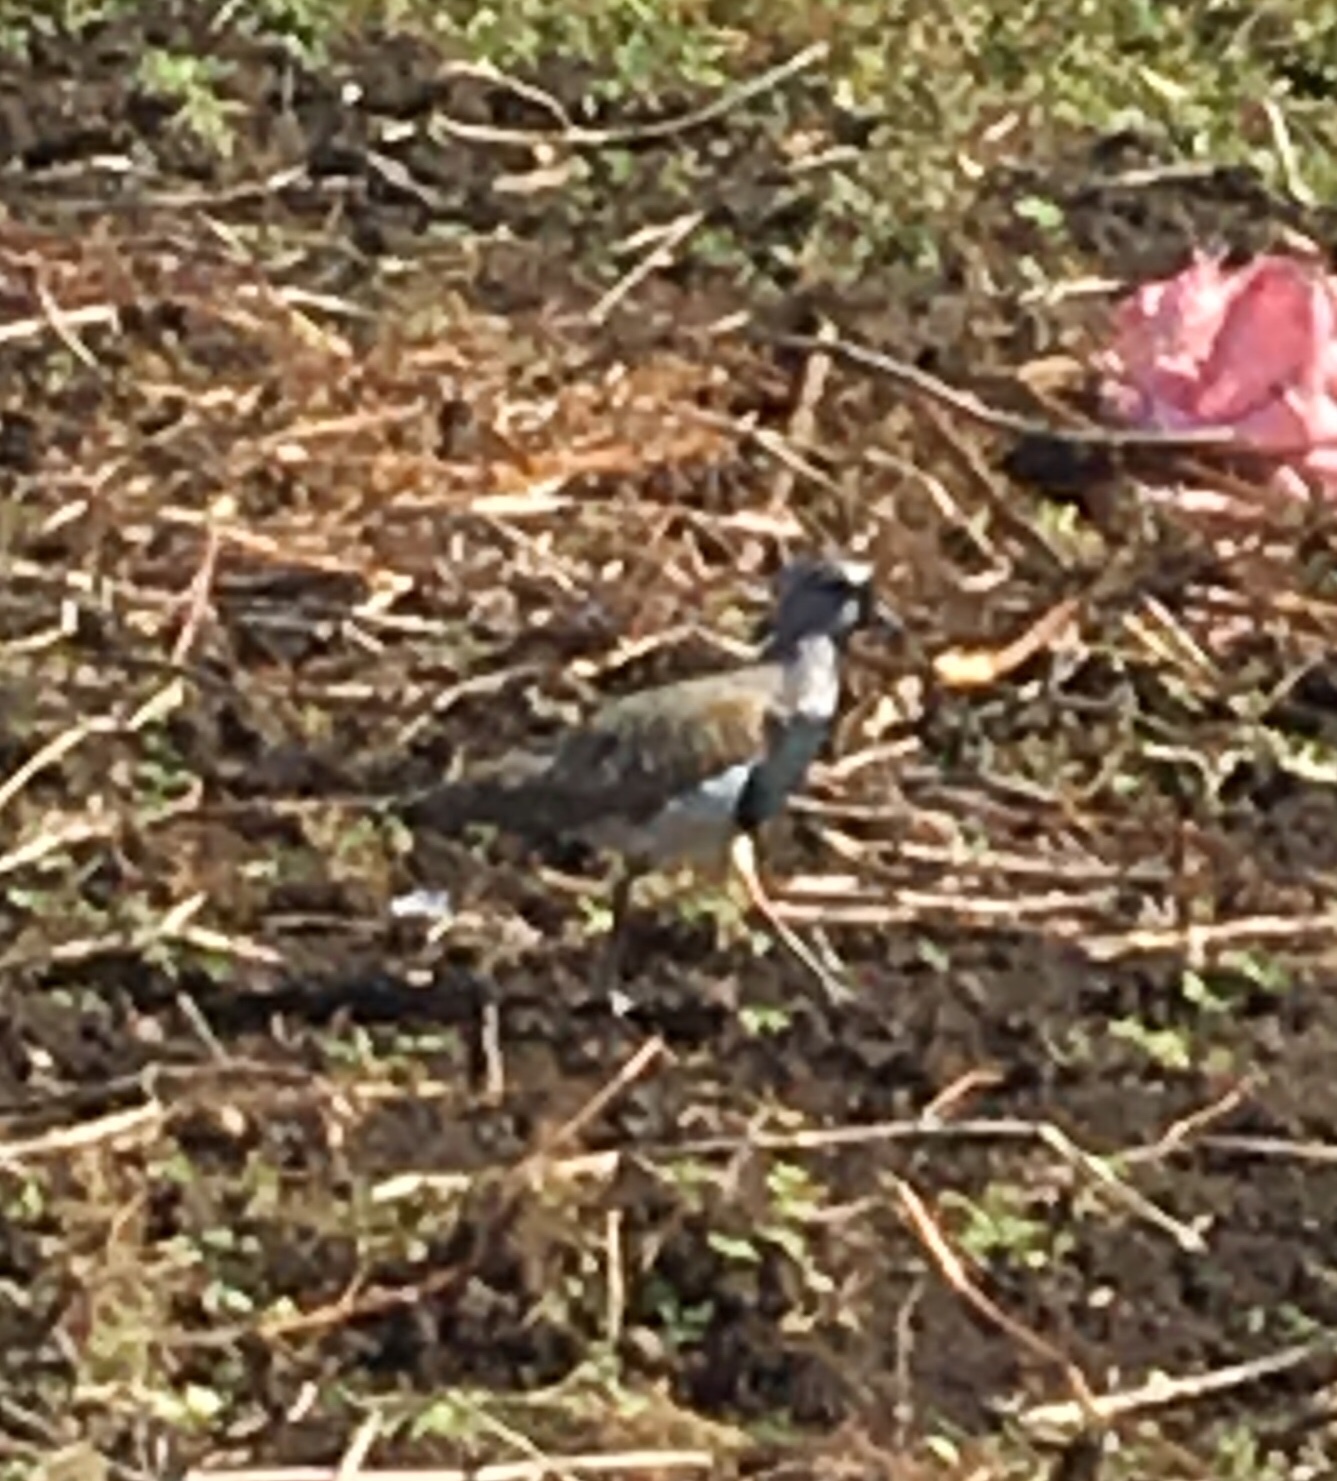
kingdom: Animalia
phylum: Chordata
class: Aves
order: Charadriiformes
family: Charadriidae
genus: Vanellus
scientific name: Vanellus chilensis
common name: Southern lapwing
